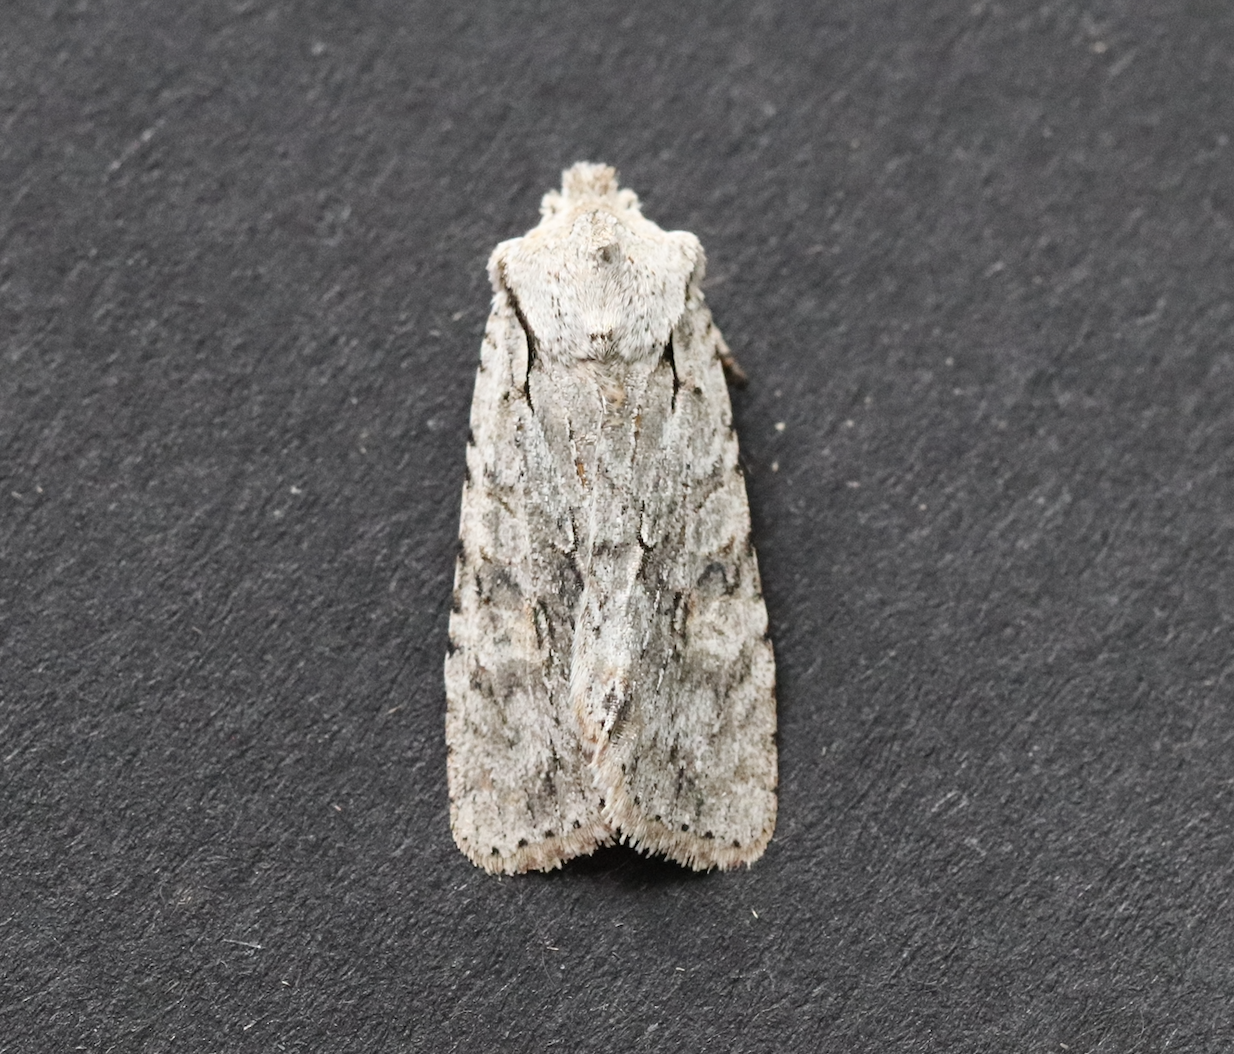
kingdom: Animalia
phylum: Arthropoda
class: Insecta
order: Lepidoptera
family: Noctuidae
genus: Lithophane
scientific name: Lithophane ornitopus
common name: Grey shoulder-knot
